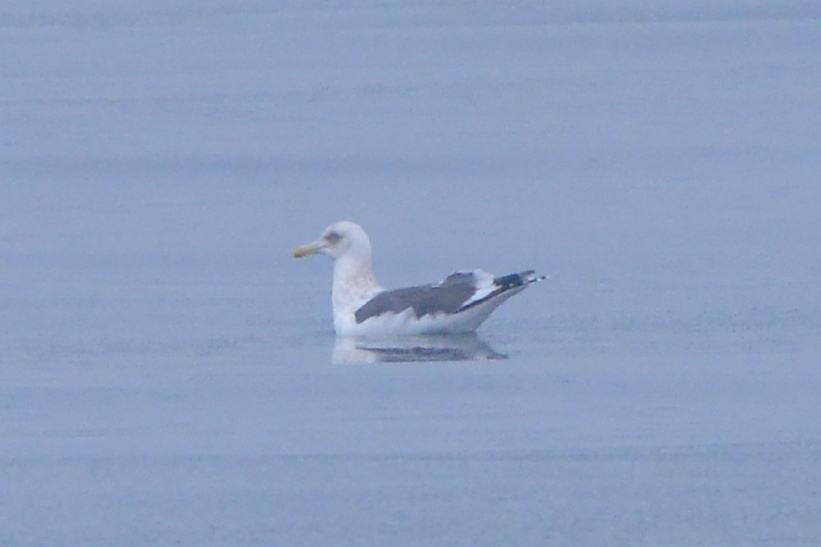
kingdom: Animalia
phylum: Chordata
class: Aves
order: Charadriiformes
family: Laridae
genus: Larus
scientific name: Larus schistisagus
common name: Slaty-backed gull
